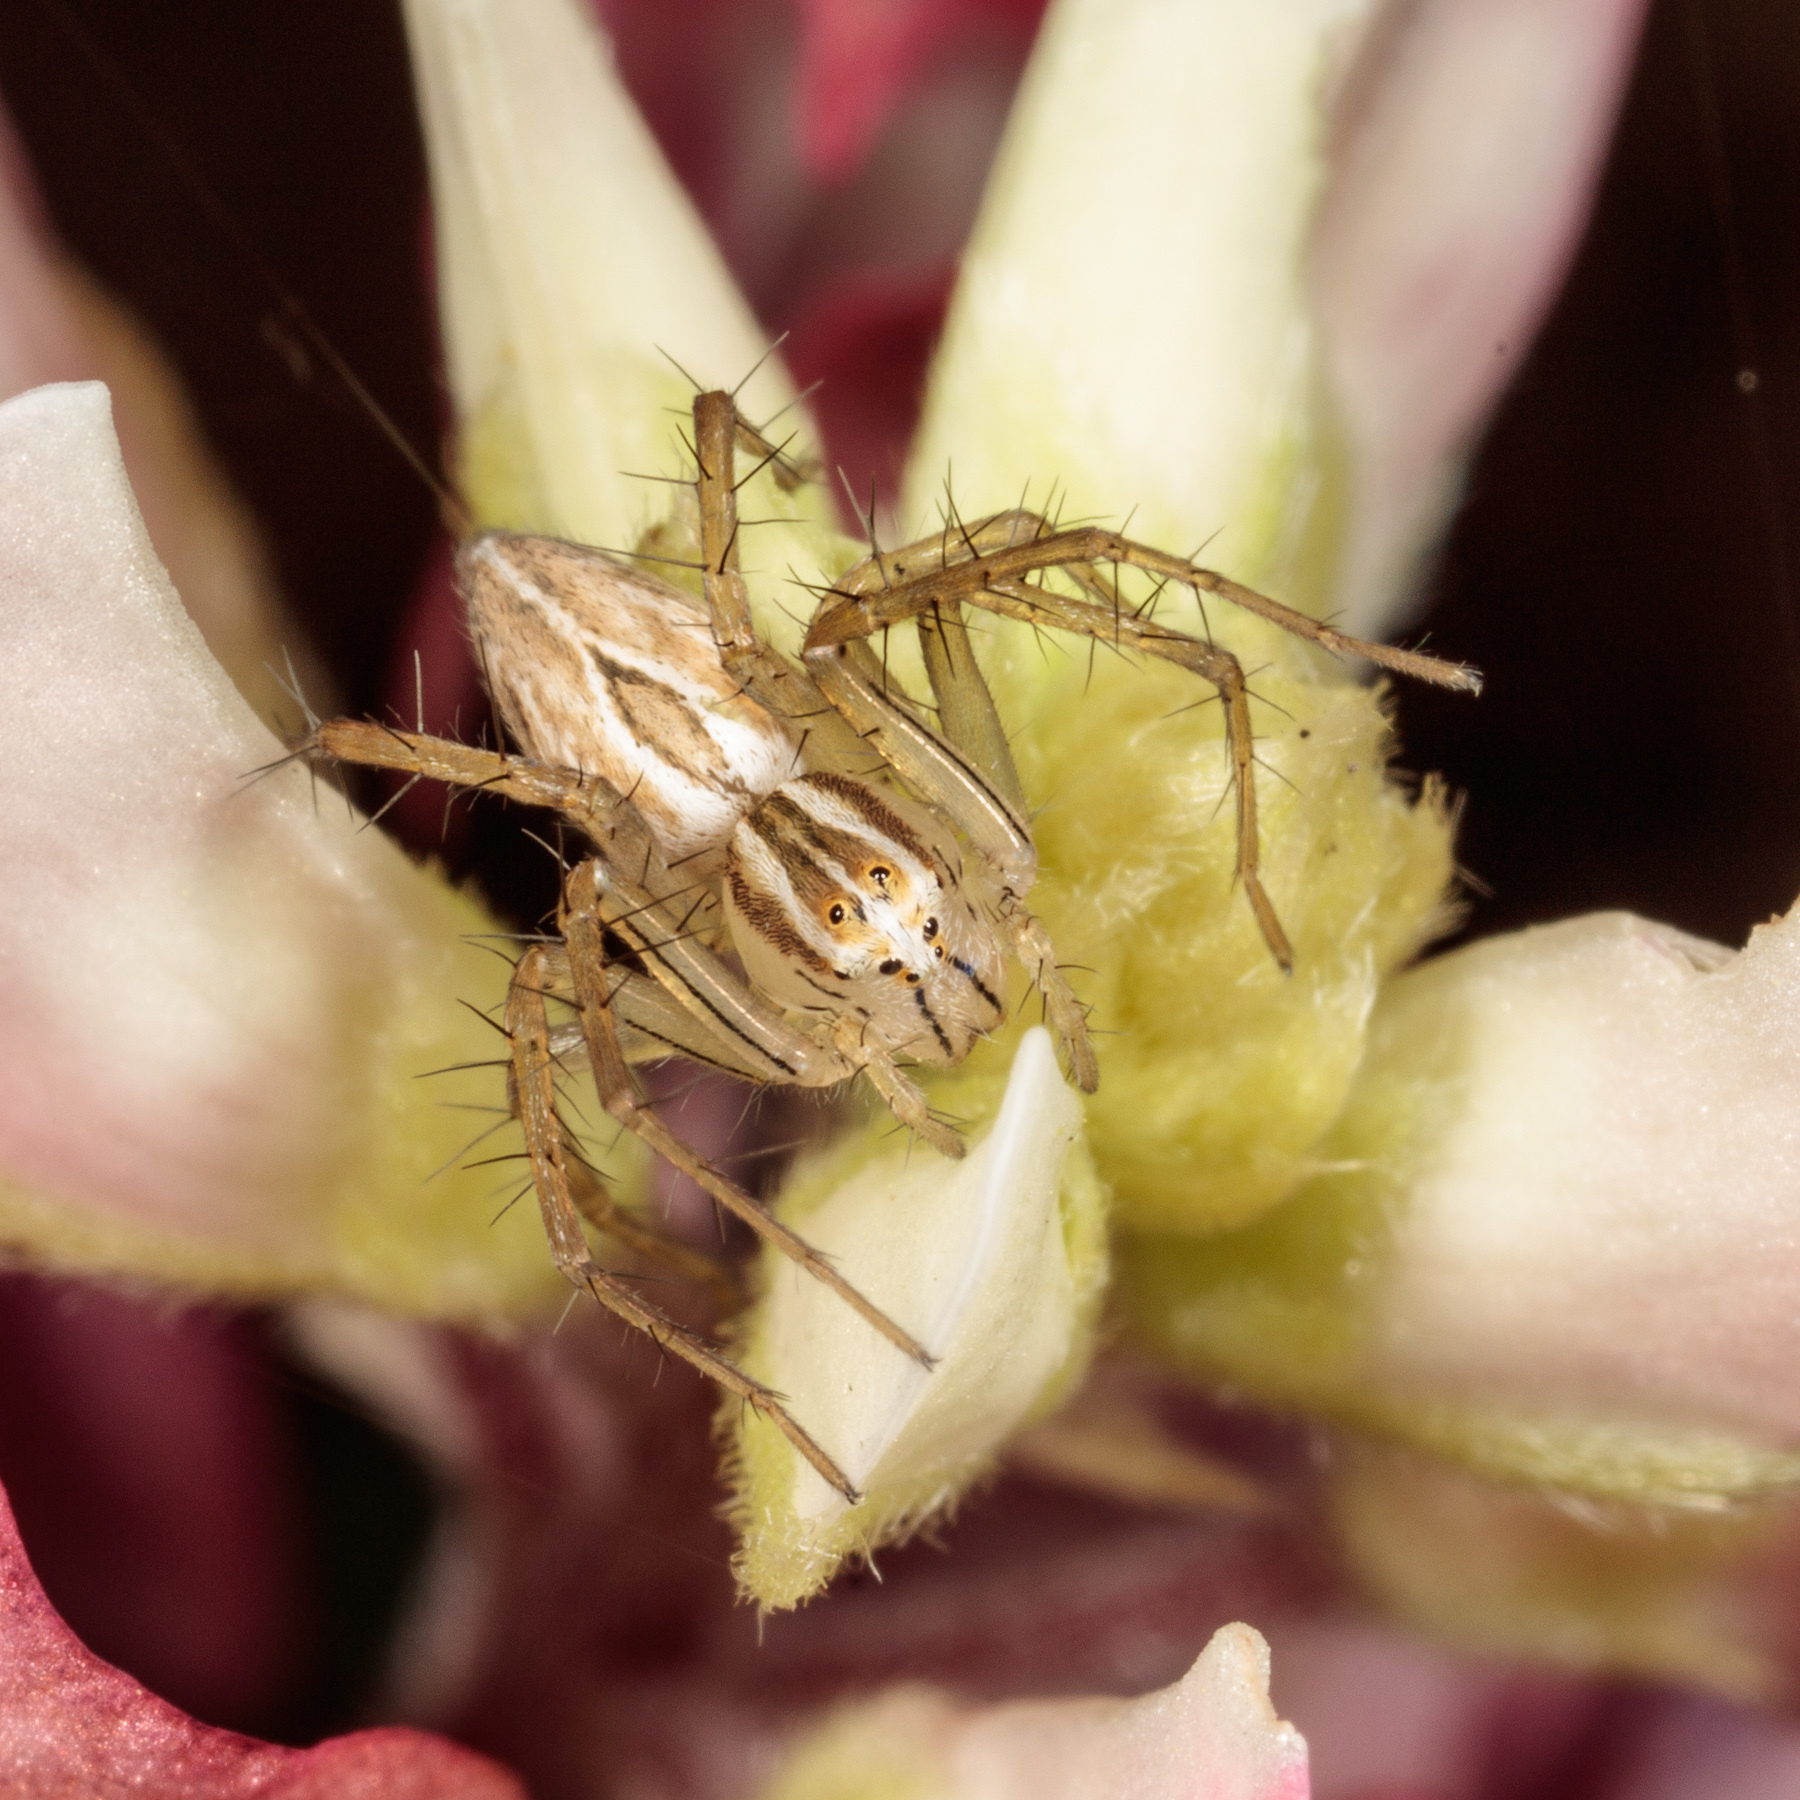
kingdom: Animalia
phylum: Arthropoda
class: Arachnida
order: Araneae
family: Oxyopidae
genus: Oxyopes
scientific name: Oxyopes salticus
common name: Lynx spiders
